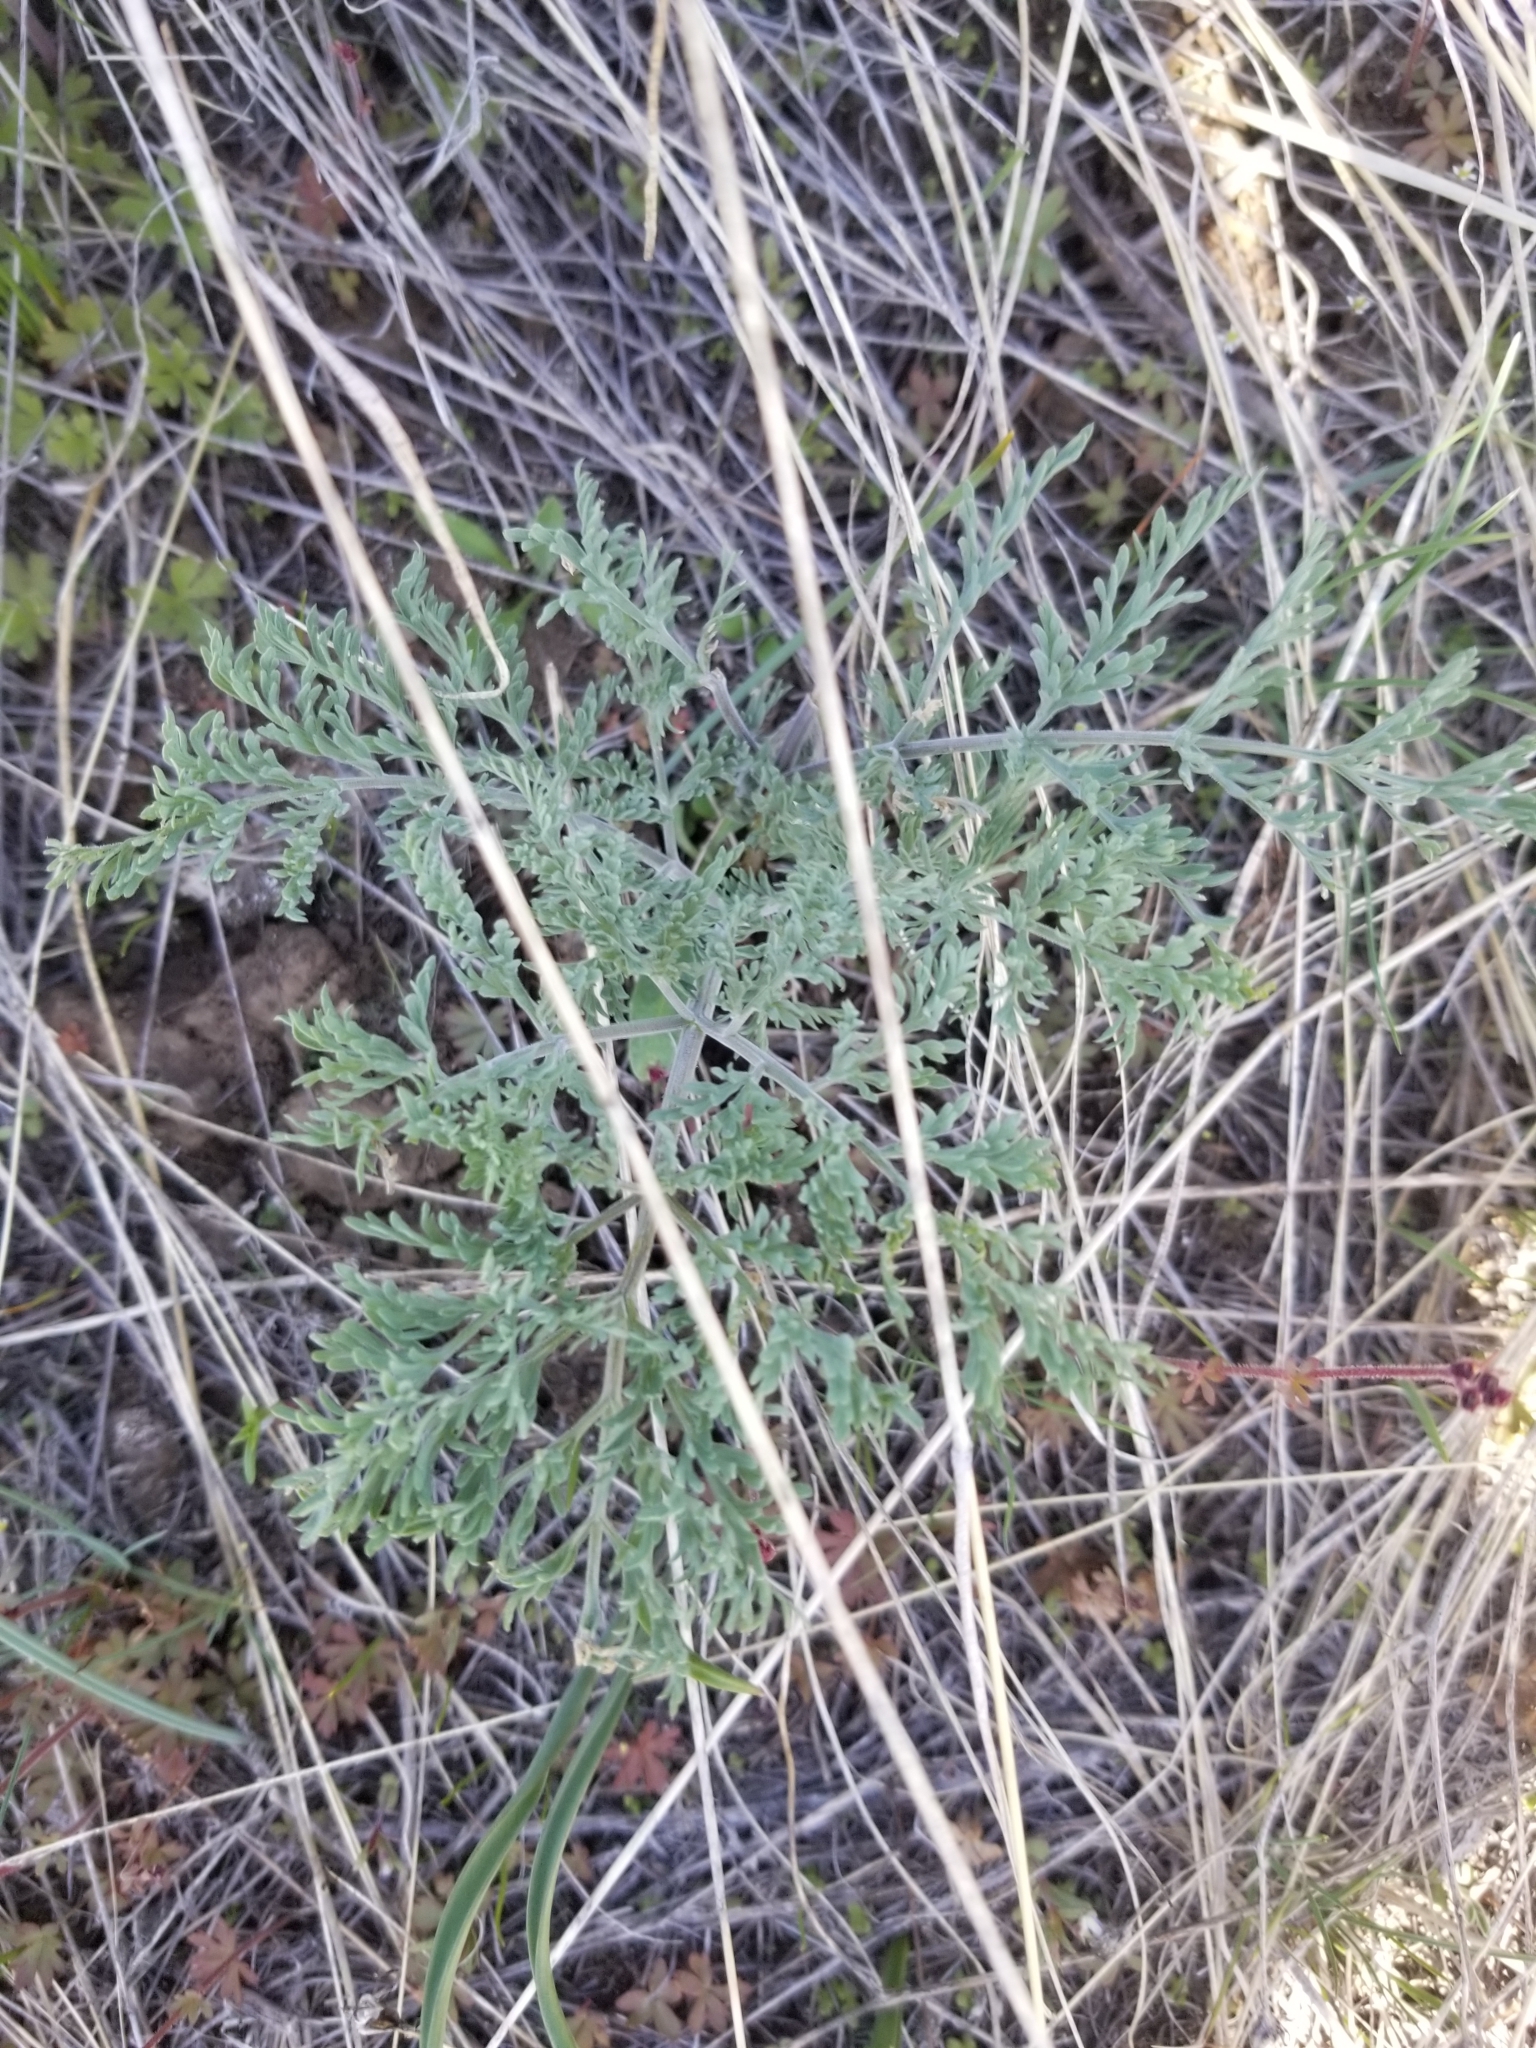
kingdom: Plantae
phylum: Tracheophyta
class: Magnoliopsida
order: Apiales
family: Apiaceae
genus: Lomatium
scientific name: Lomatium macrocarpum
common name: Big-seed biscuitroot
